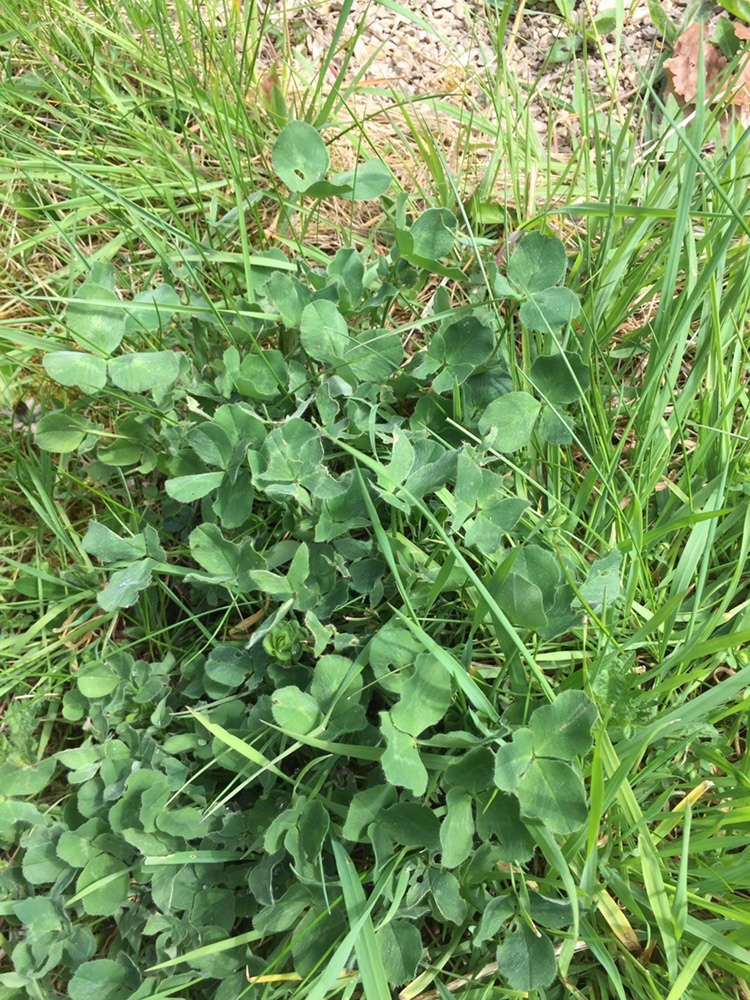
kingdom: Plantae
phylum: Tracheophyta
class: Magnoliopsida
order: Fabales
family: Fabaceae
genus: Trifolium
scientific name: Trifolium pratense
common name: Red clover
